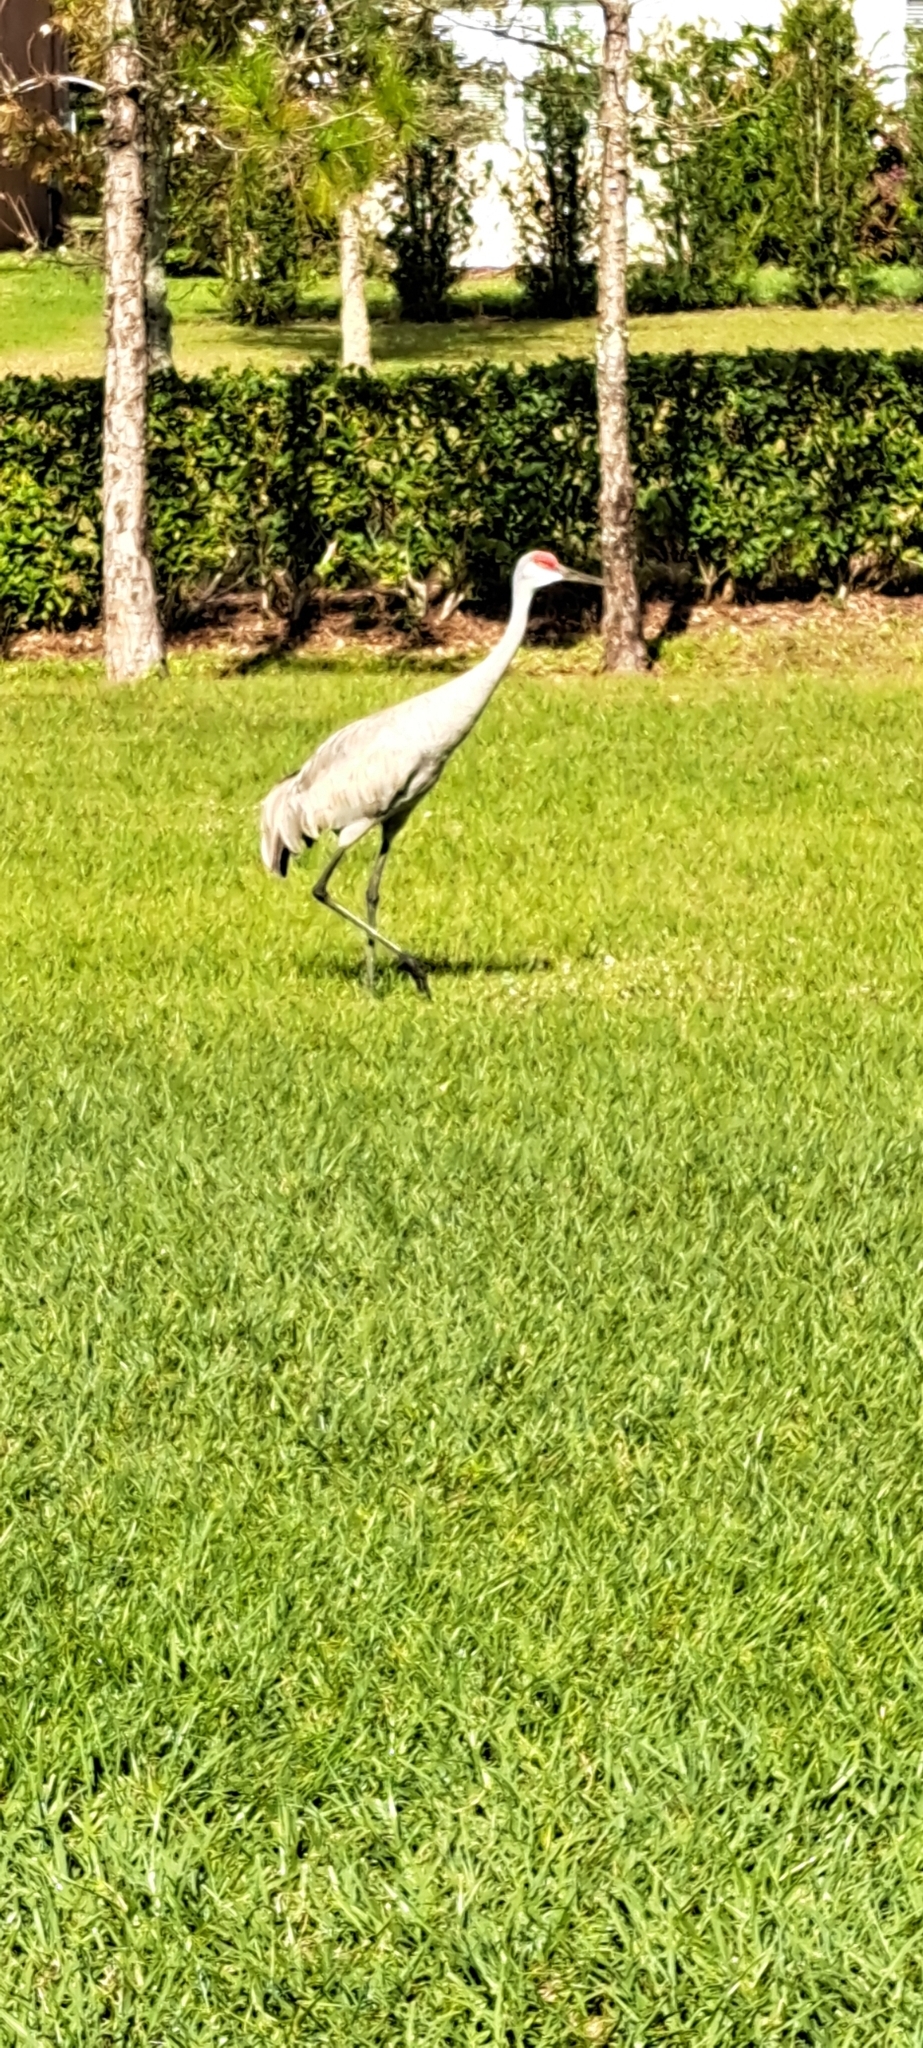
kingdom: Animalia
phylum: Chordata
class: Aves
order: Gruiformes
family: Gruidae
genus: Grus
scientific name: Grus canadensis
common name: Sandhill crane
